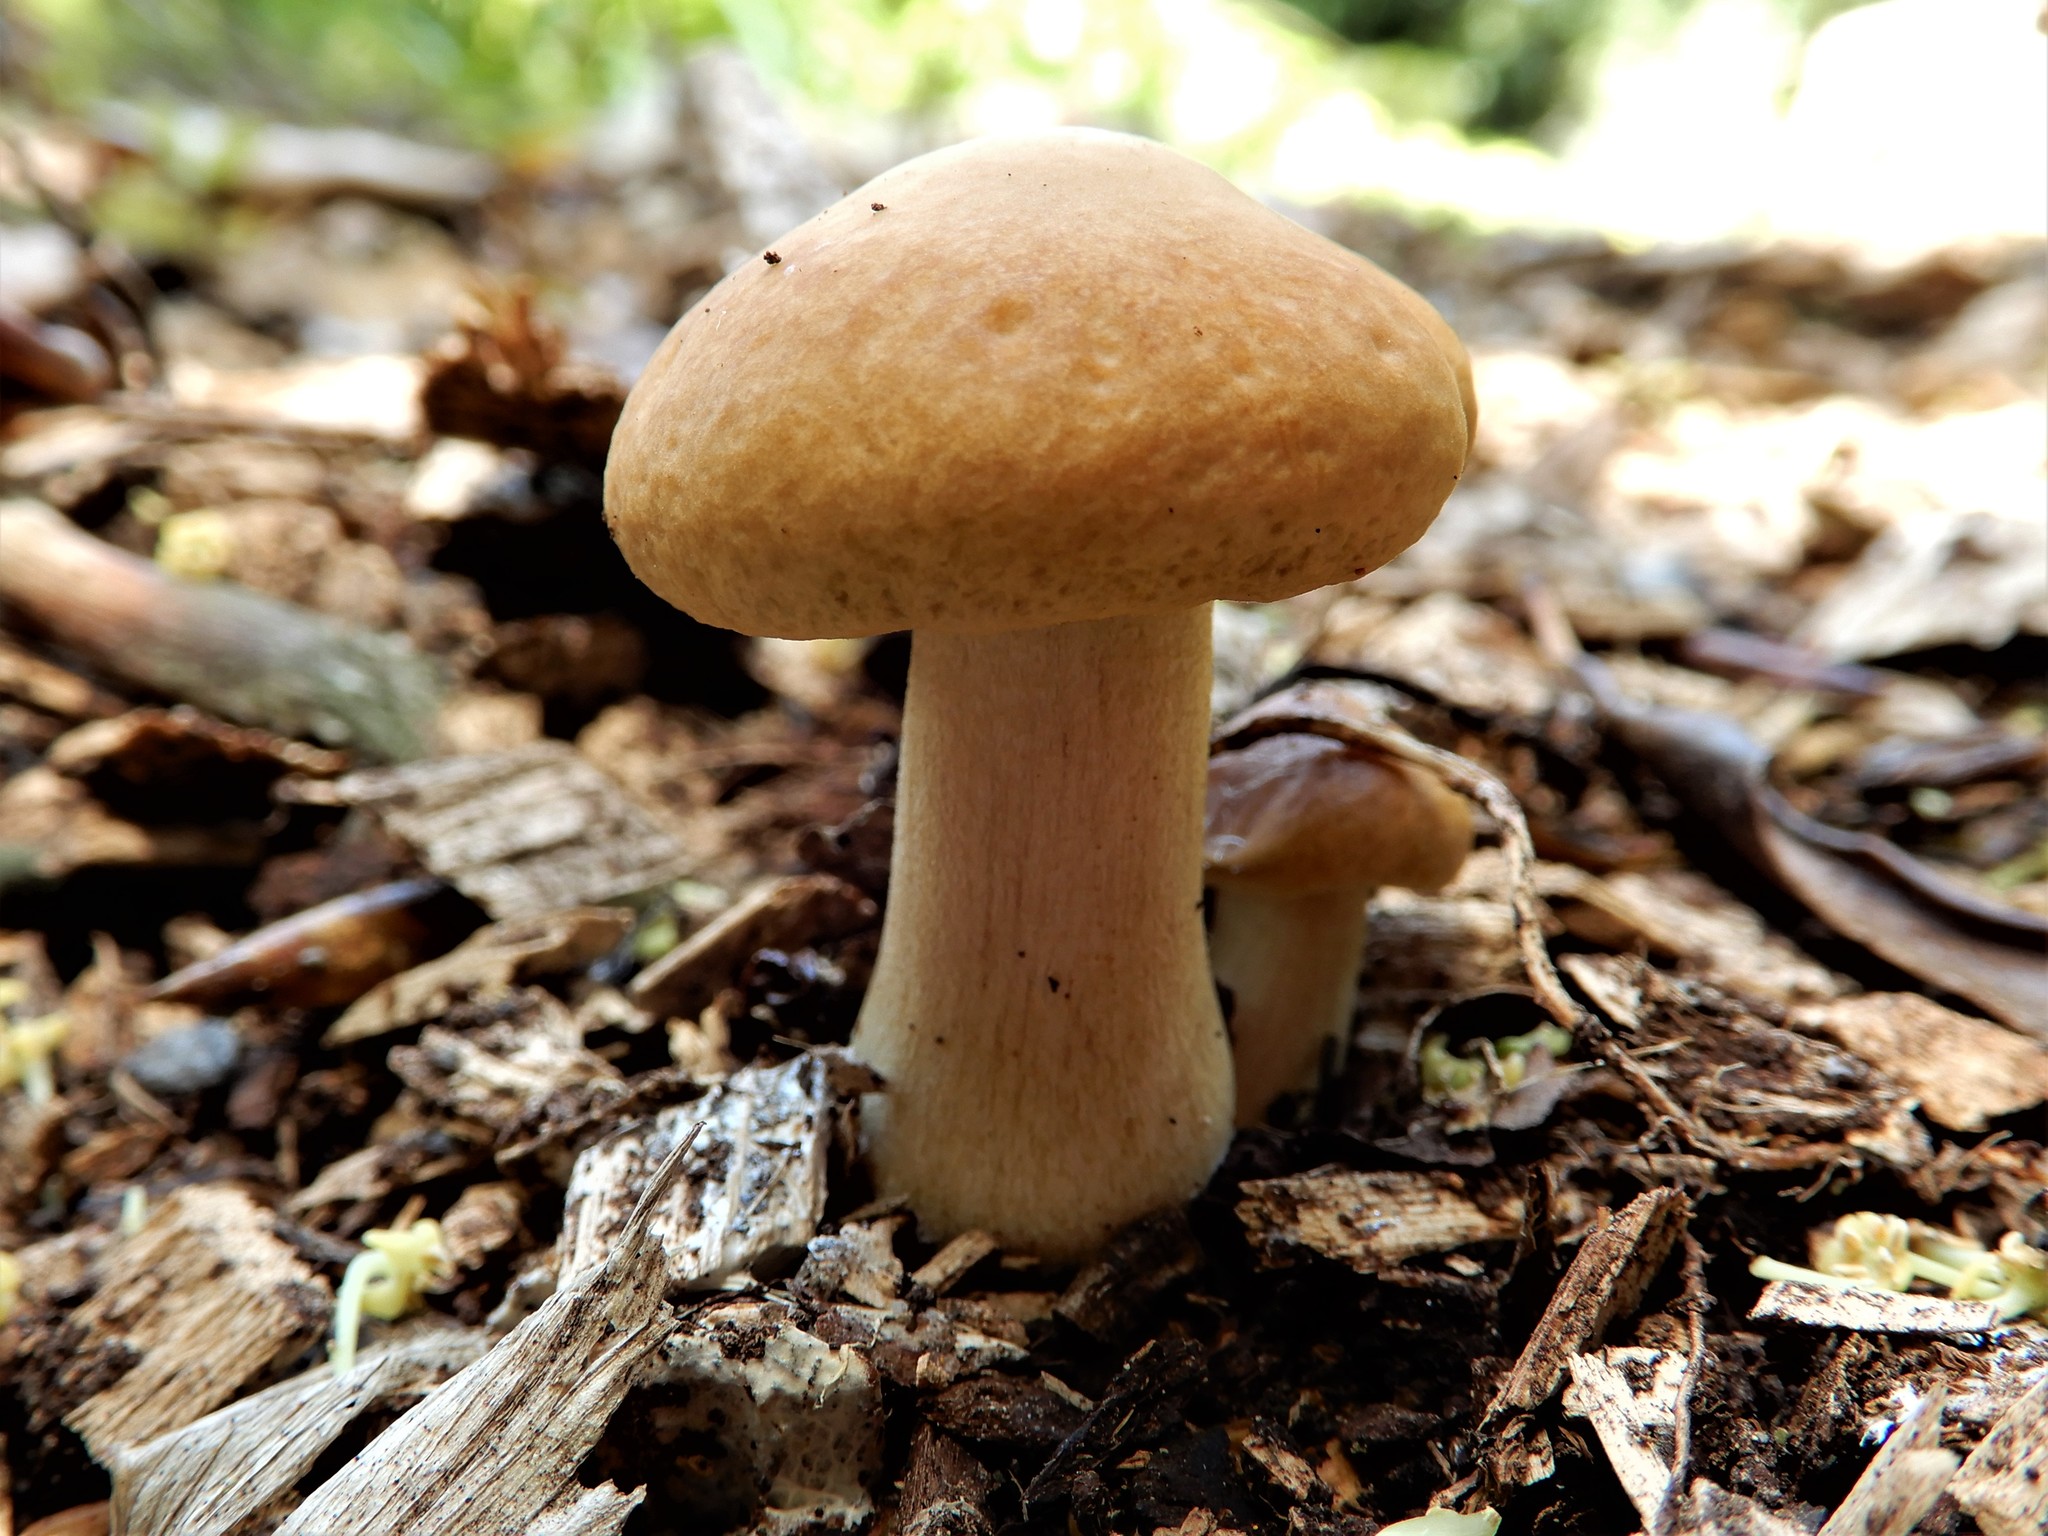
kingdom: Fungi
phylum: Basidiomycota
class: Agaricomycetes
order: Agaricales
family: Strophariaceae
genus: Agrocybe
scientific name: Agrocybe putaminum
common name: Mulch fieldcap
